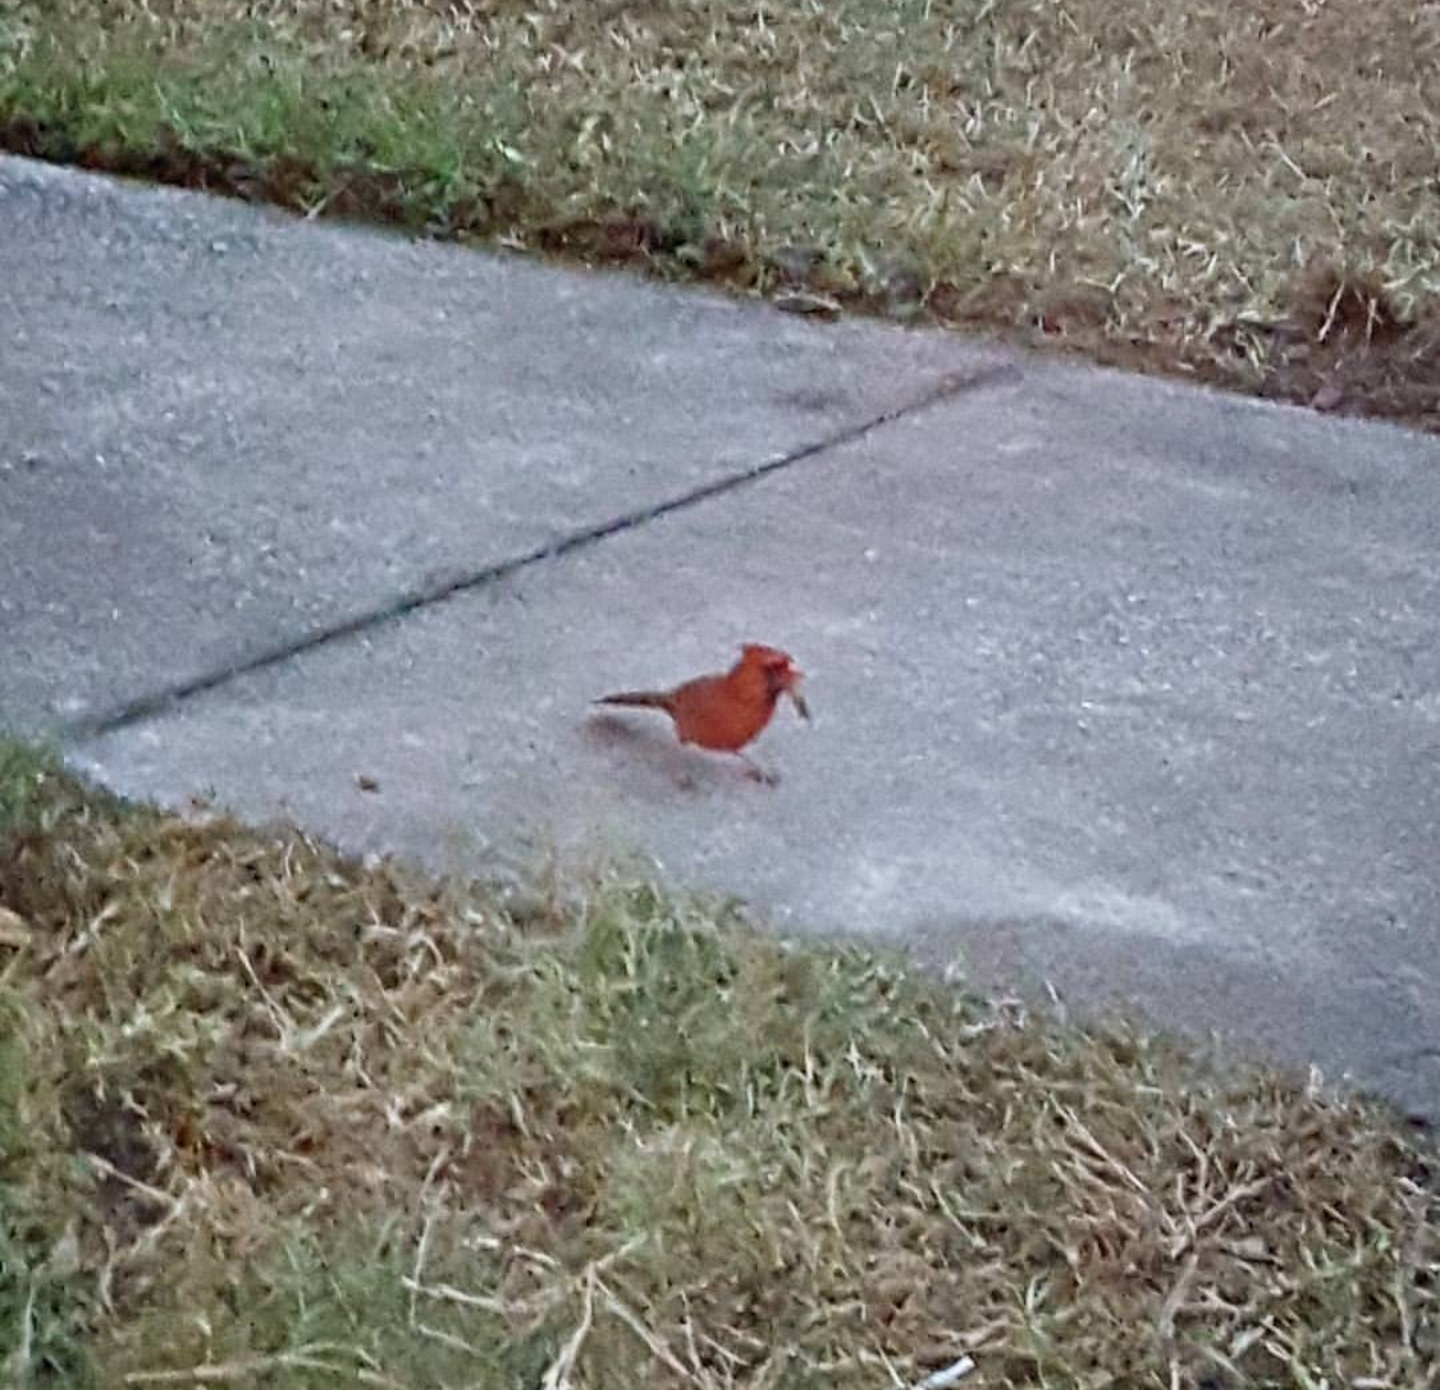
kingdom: Animalia
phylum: Chordata
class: Aves
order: Passeriformes
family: Cardinalidae
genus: Cardinalis
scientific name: Cardinalis cardinalis
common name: Northern cardinal
